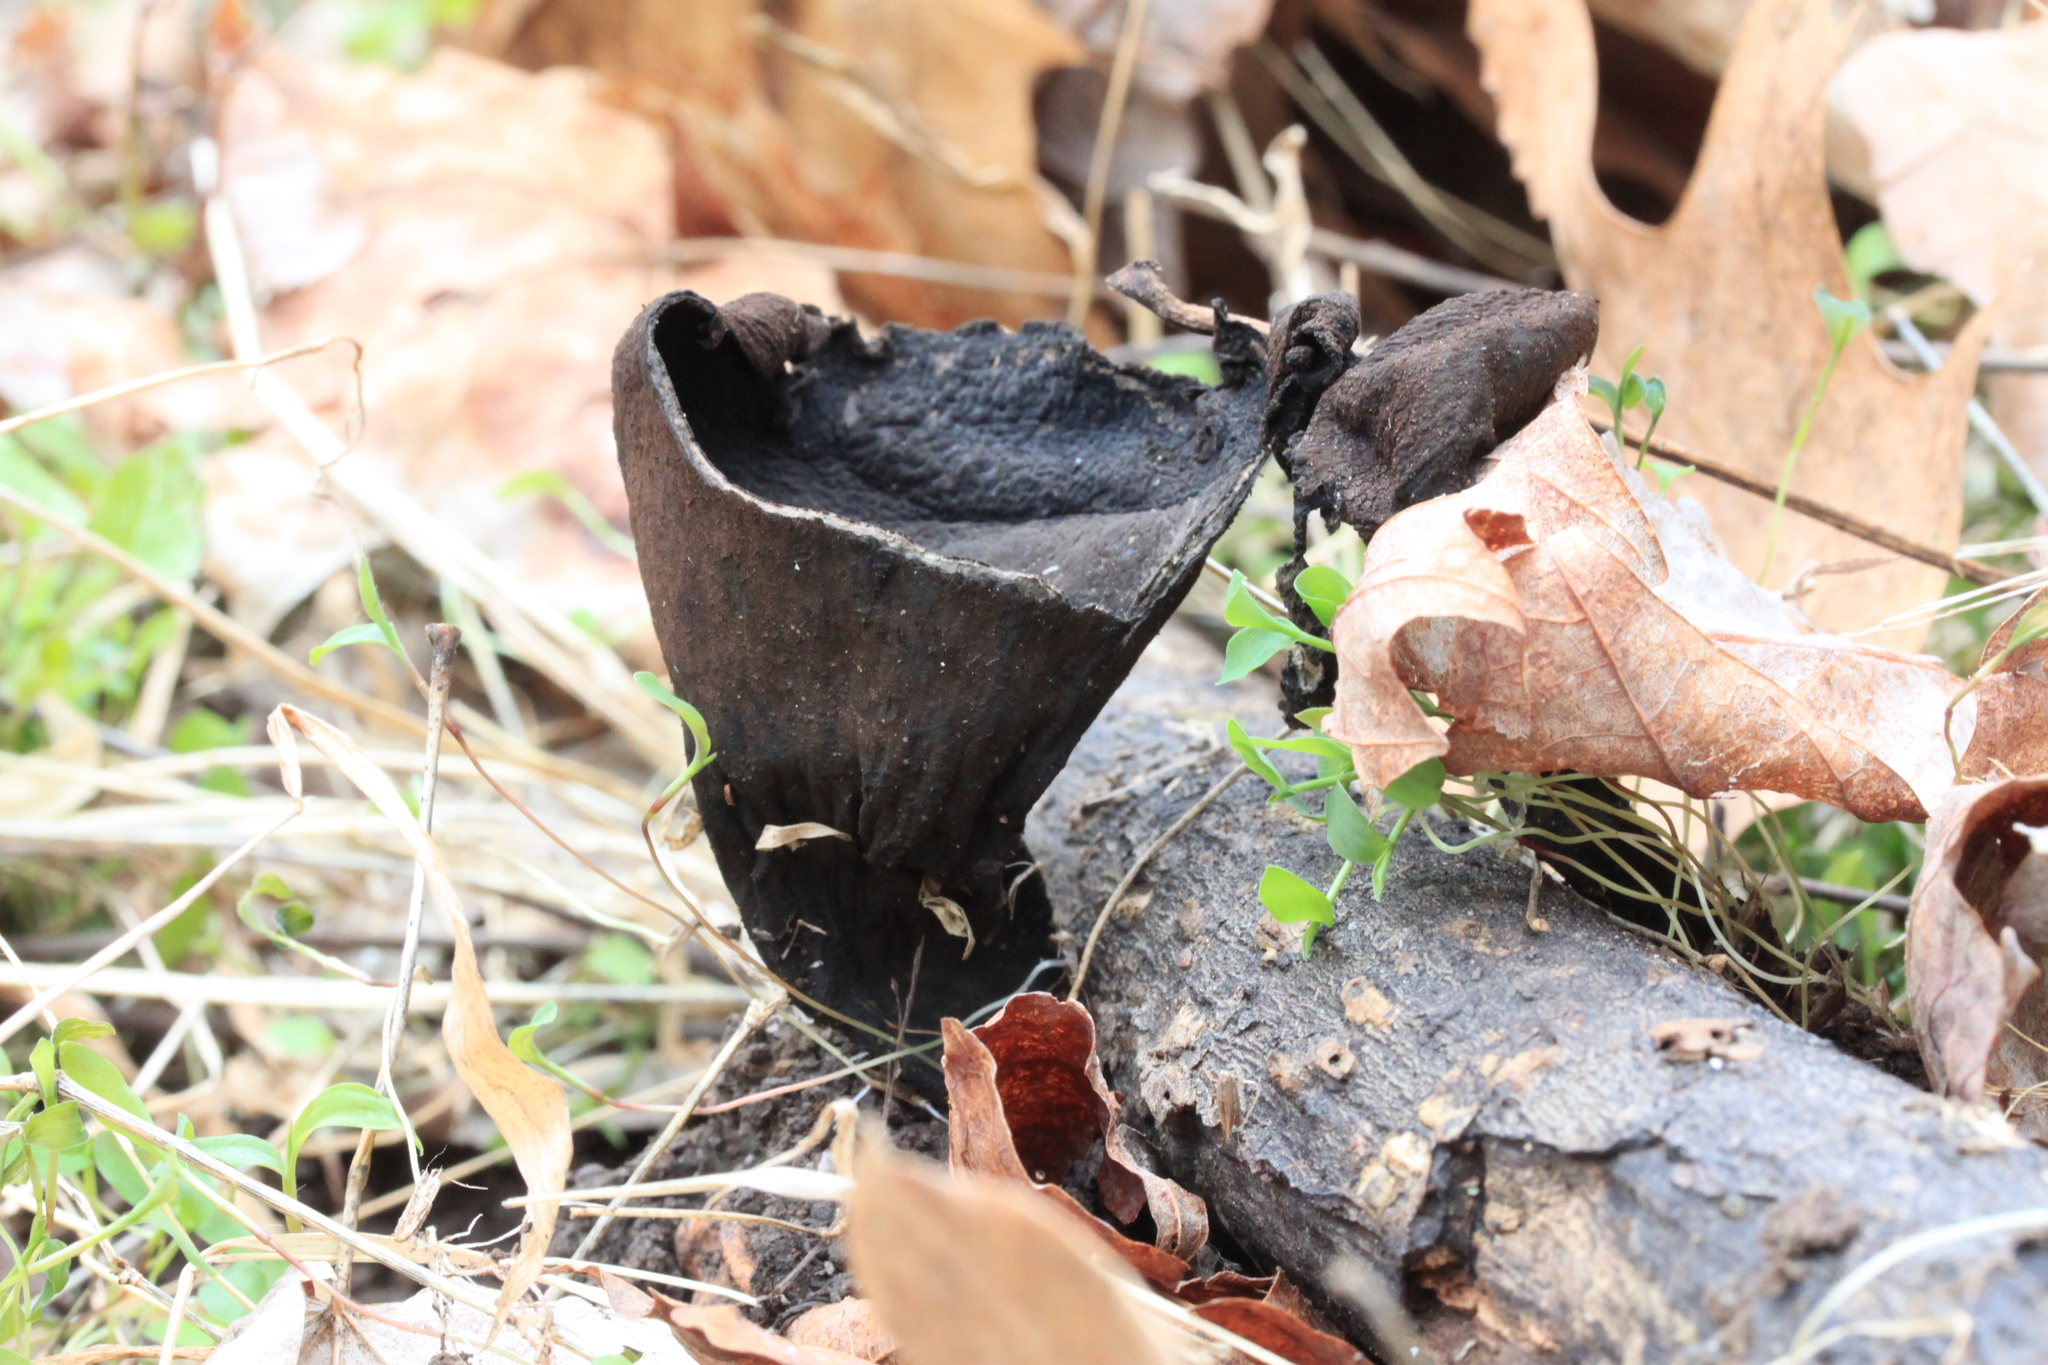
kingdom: Fungi
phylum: Ascomycota
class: Pezizomycetes
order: Pezizales
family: Sarcosomataceae
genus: Urnula
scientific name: Urnula craterium
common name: Devil's urn
